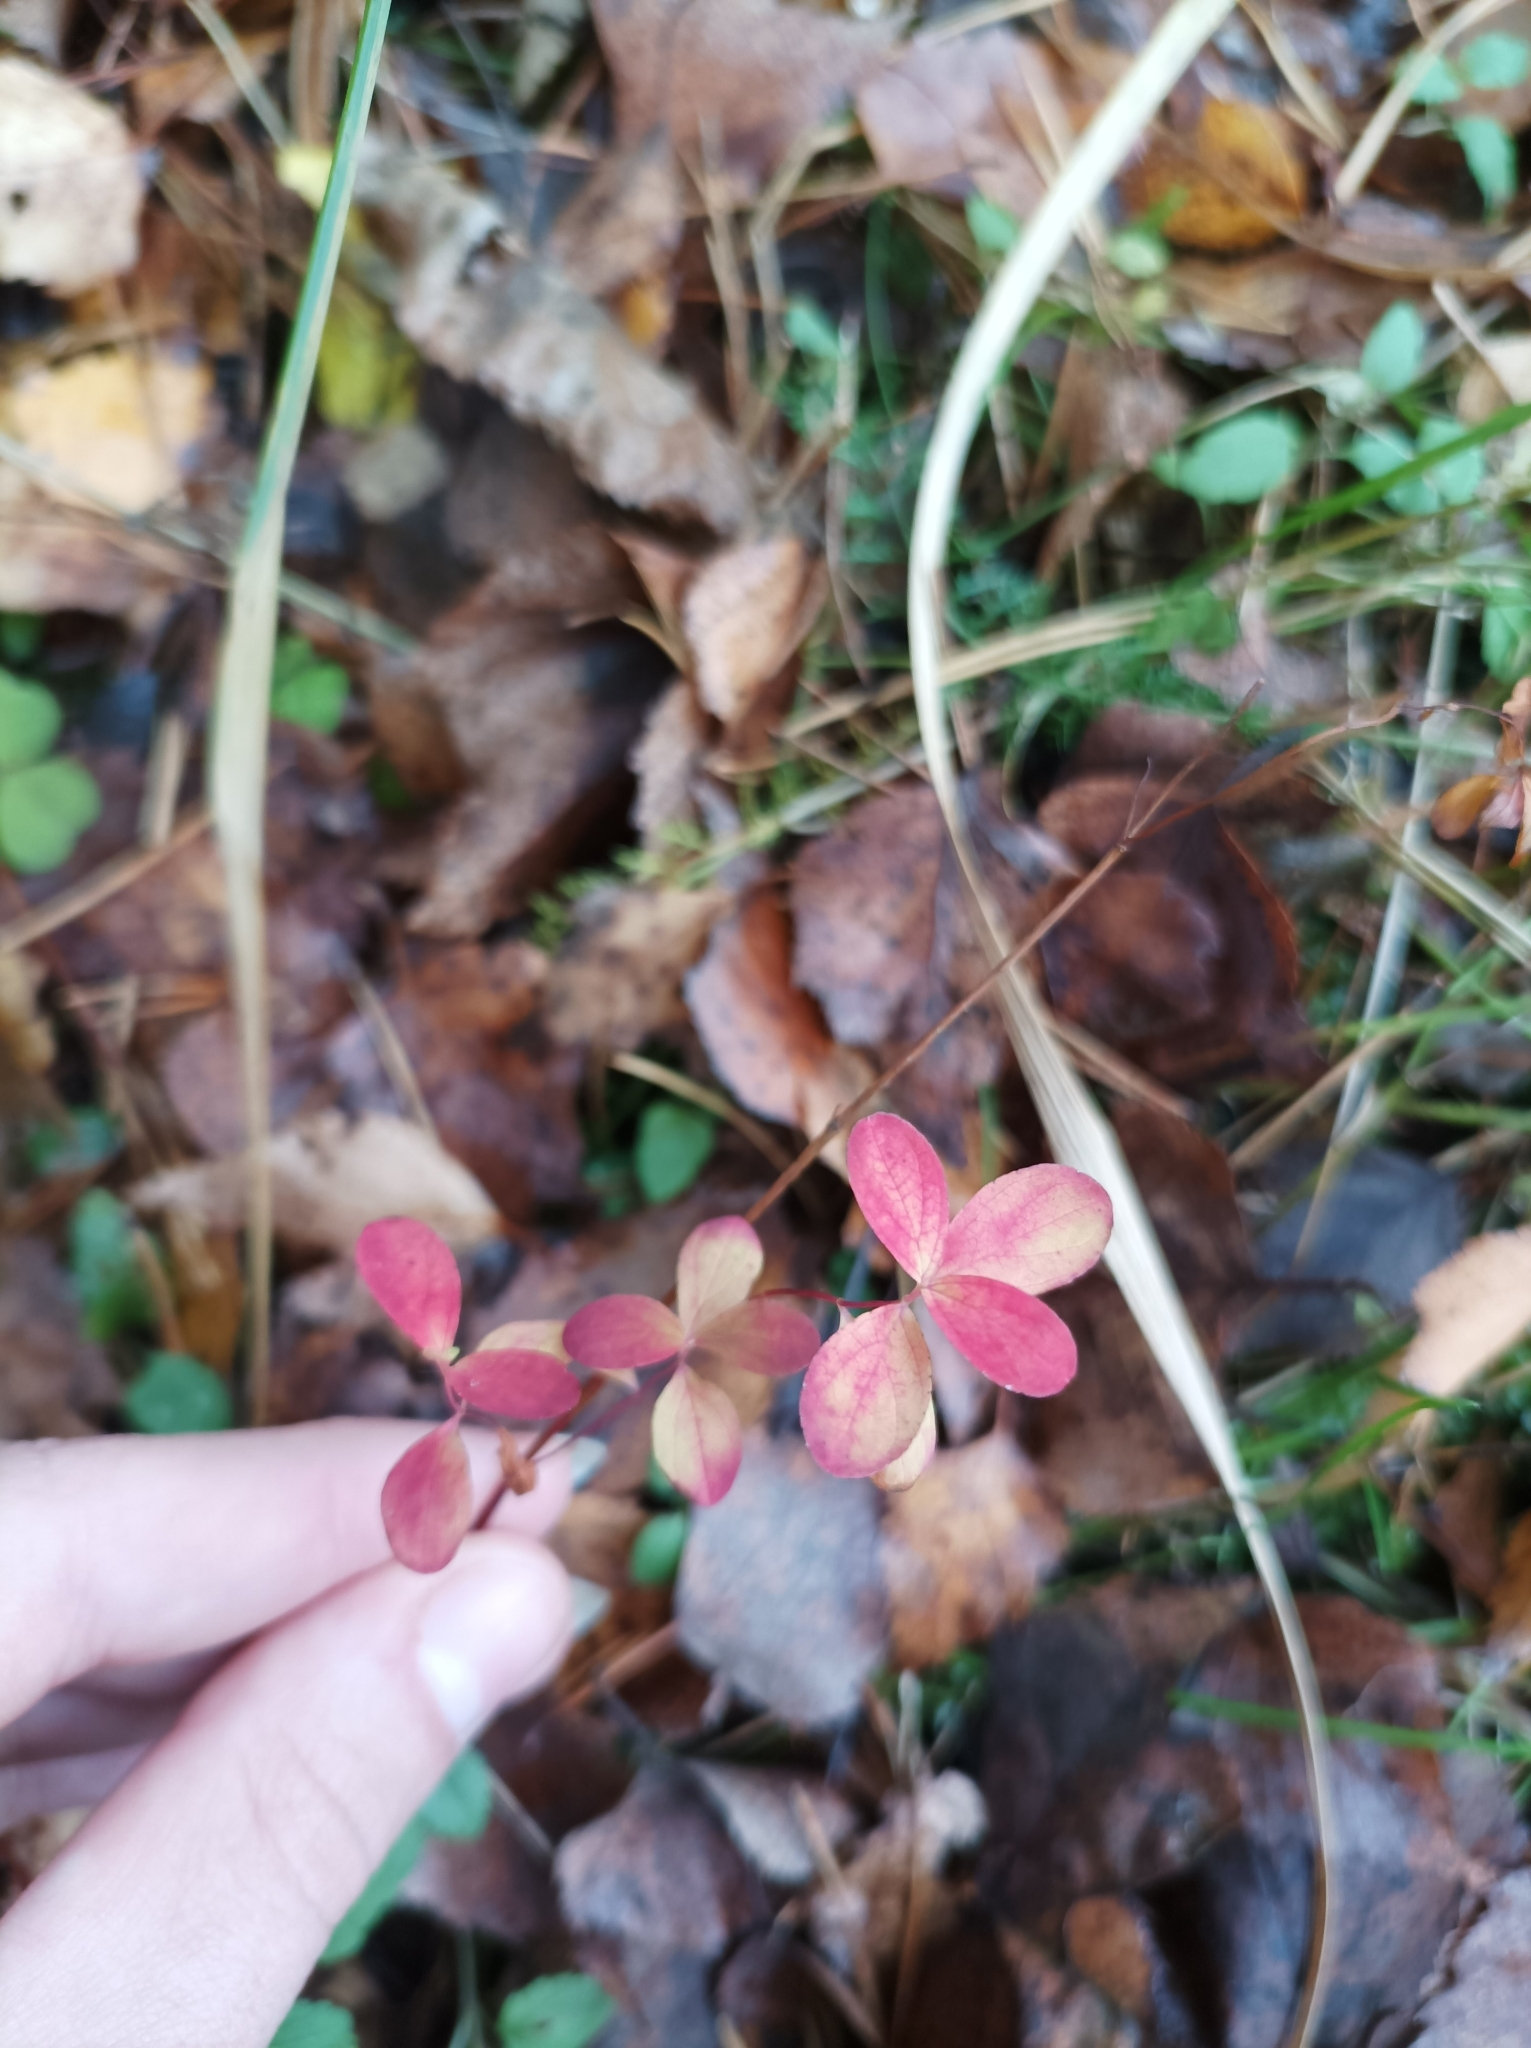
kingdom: Plantae
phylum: Tracheophyta
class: Magnoliopsida
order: Ericales
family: Ericaceae
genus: Vaccinium
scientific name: Vaccinium uliginosum
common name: Bog bilberry
